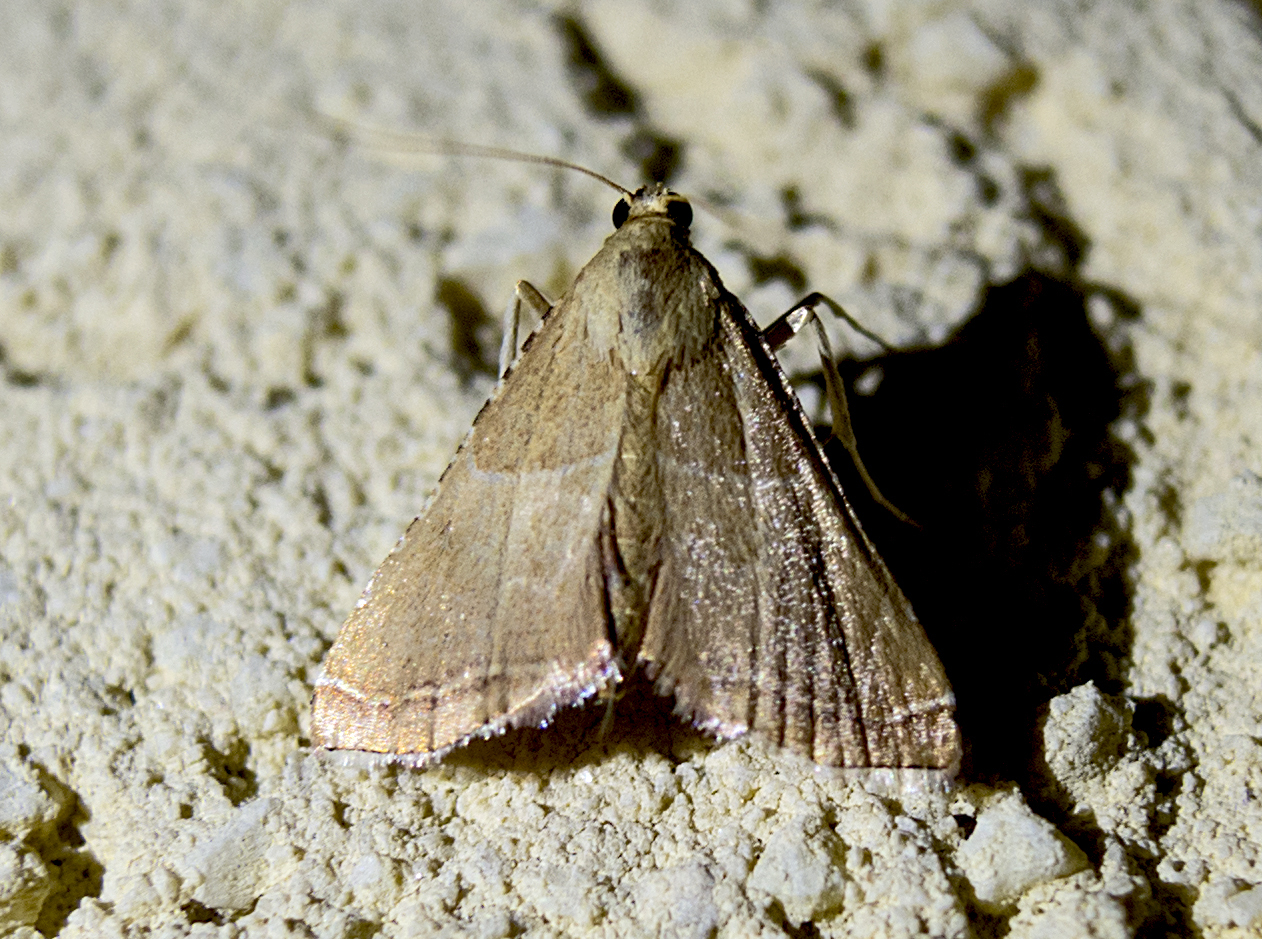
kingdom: Animalia
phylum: Arthropoda
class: Insecta
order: Lepidoptera
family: Pyralidae
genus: Endotricha
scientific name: Endotricha flammealis
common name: Rosy tabby
